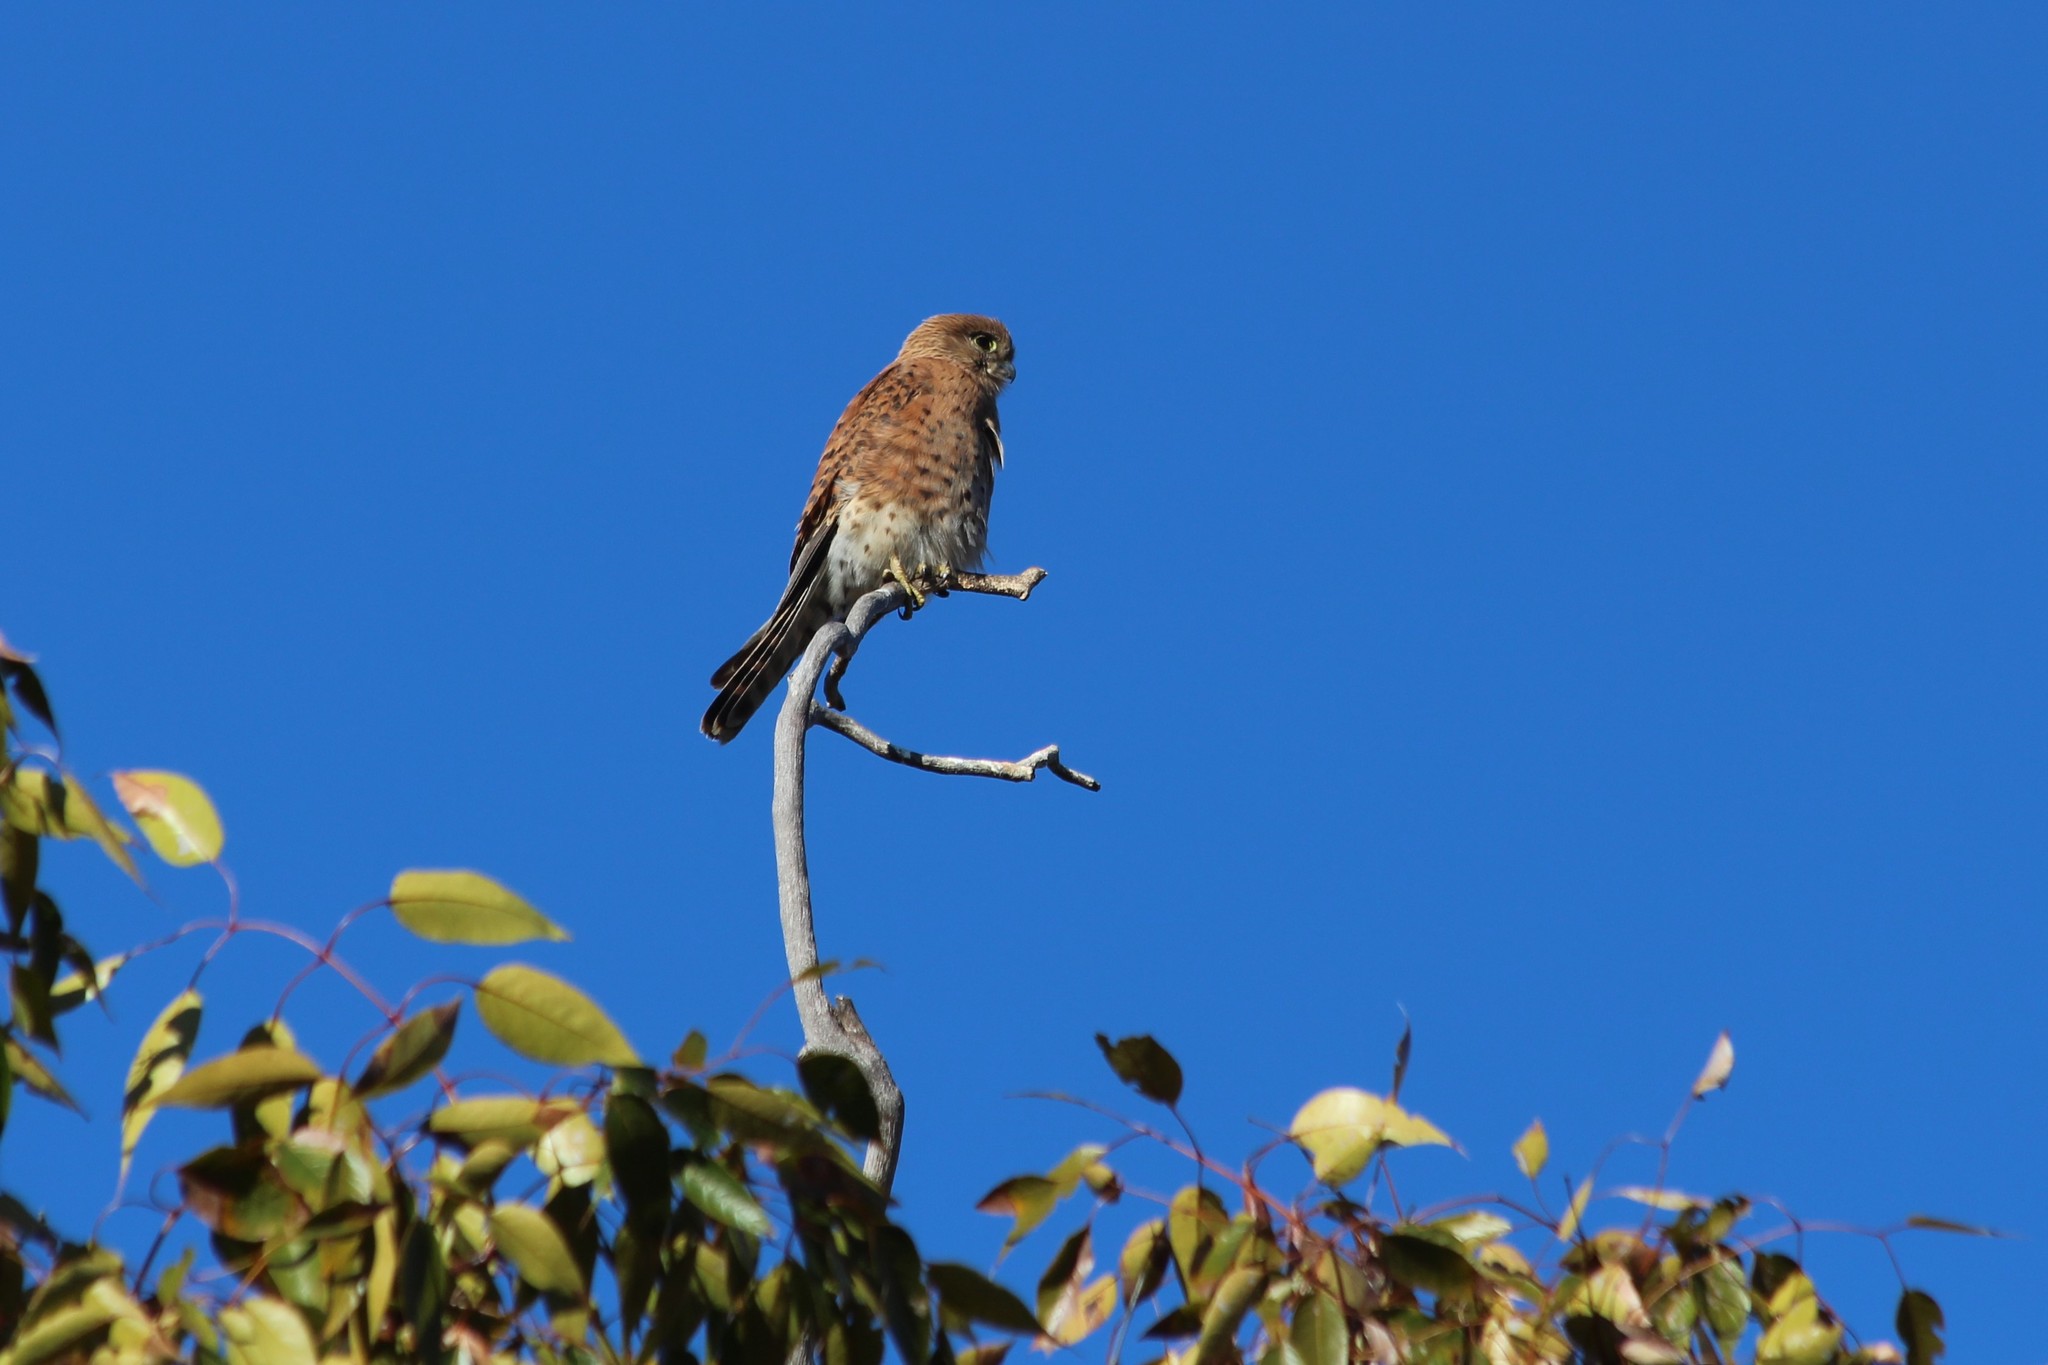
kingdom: Animalia
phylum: Chordata
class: Aves
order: Falconiformes
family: Falconidae
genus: Falco
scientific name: Falco newtoni
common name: Malagasy kestrel
